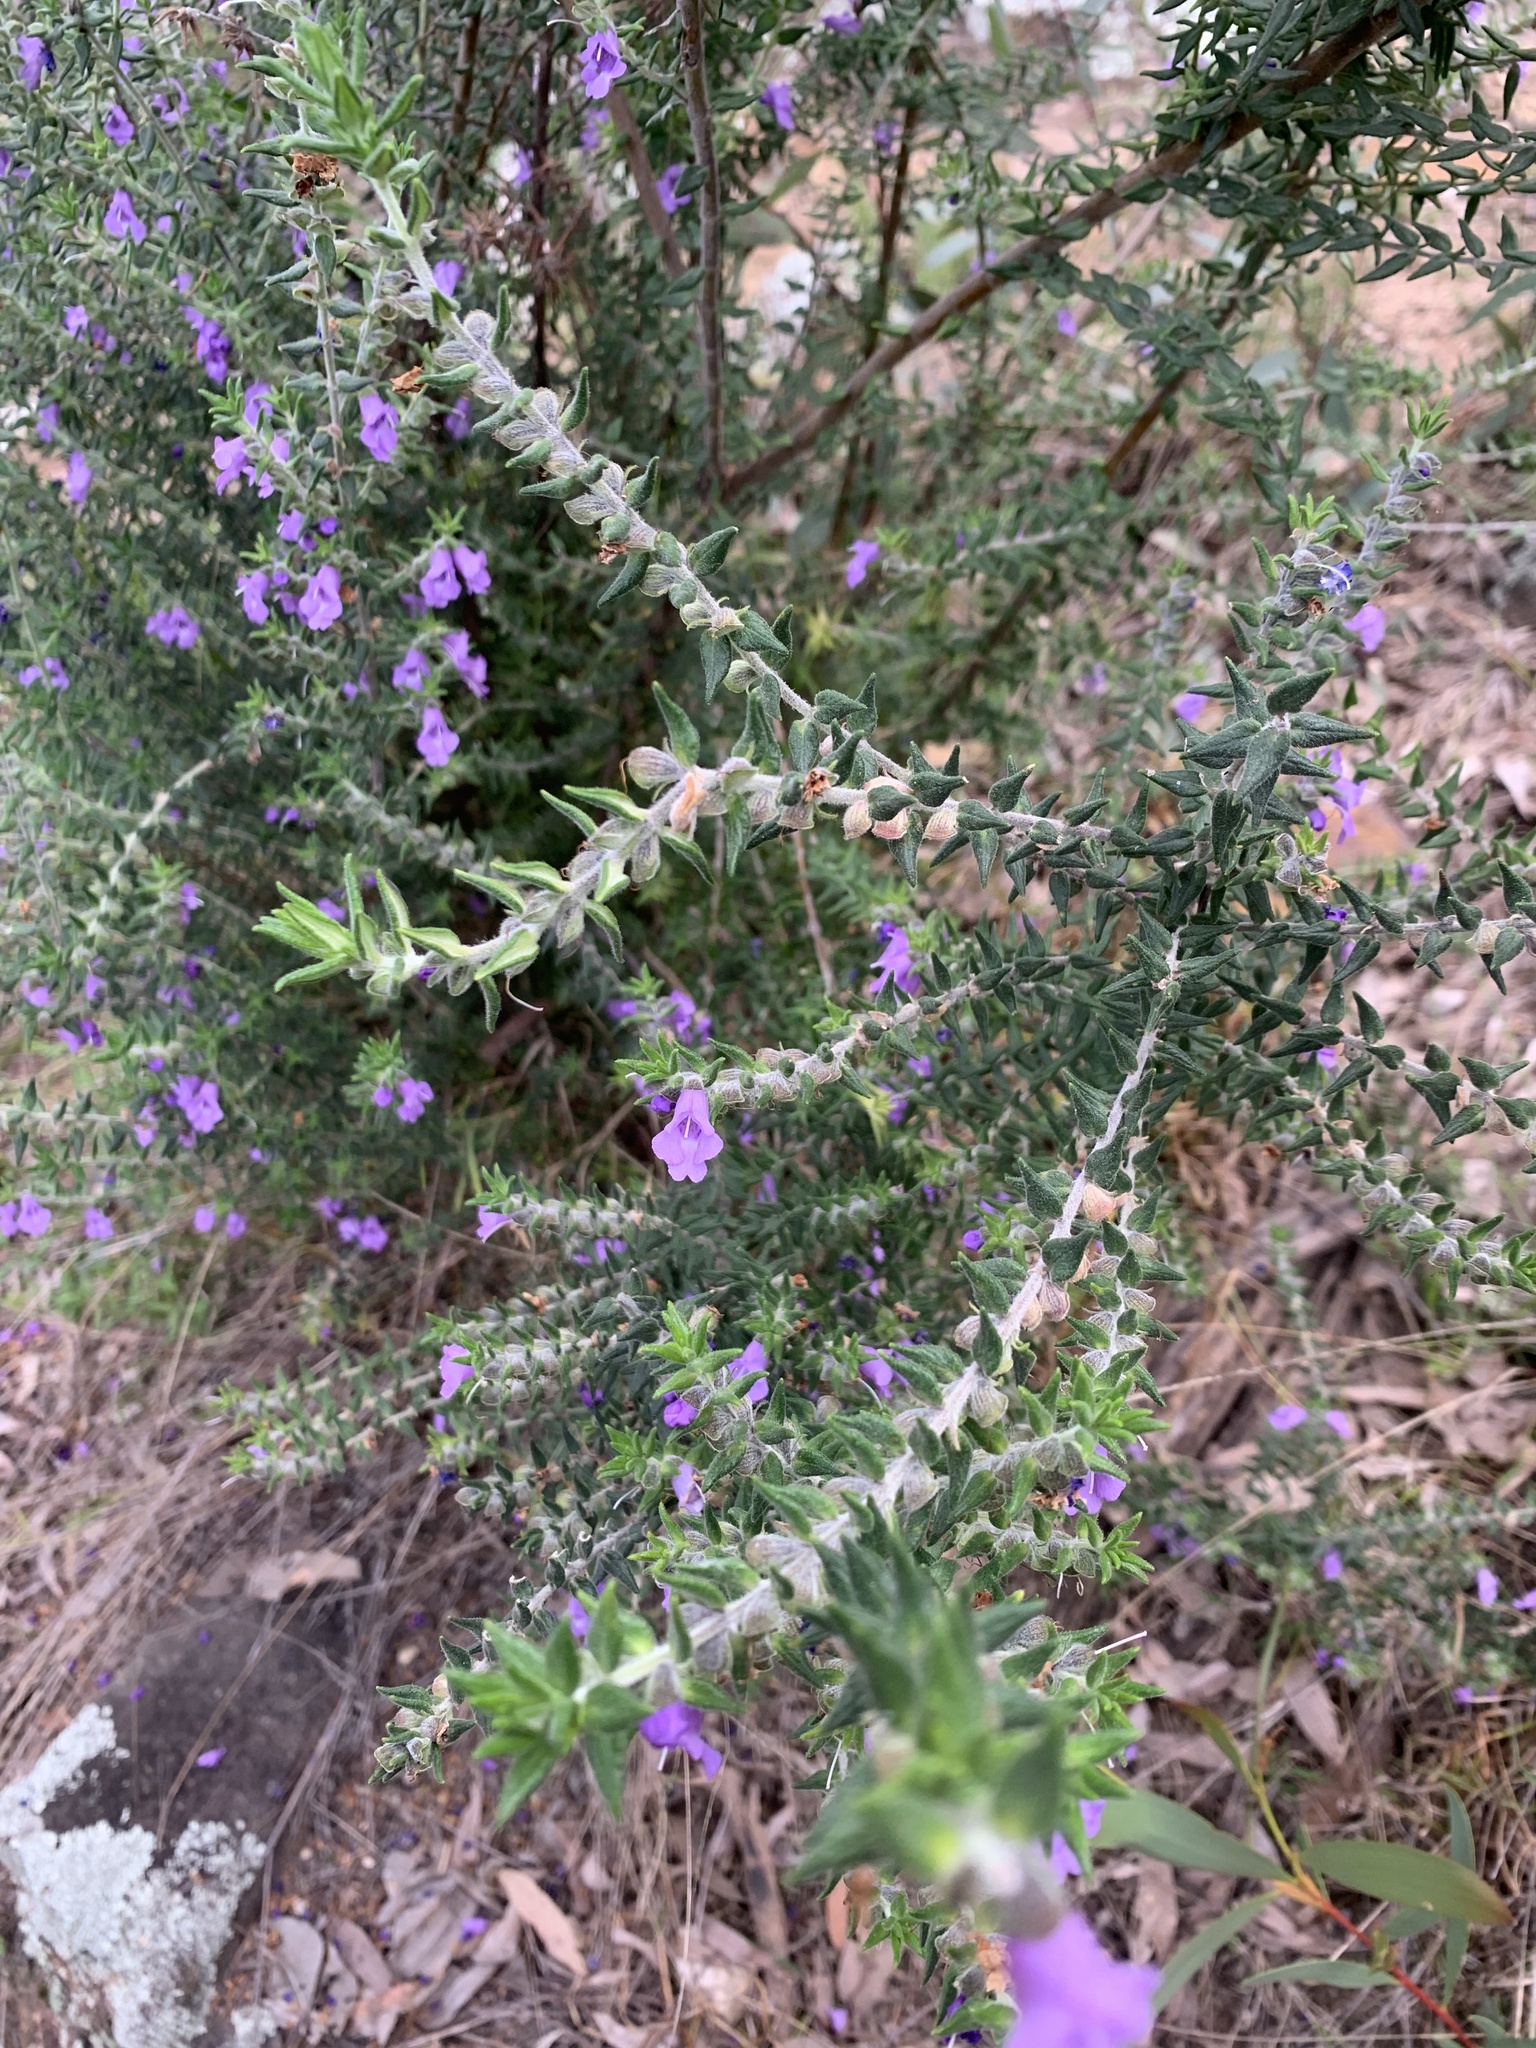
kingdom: Plantae
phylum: Tracheophyta
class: Magnoliopsida
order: Lamiales
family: Lamiaceae
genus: Prostanthera
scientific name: Prostanthera granitica
